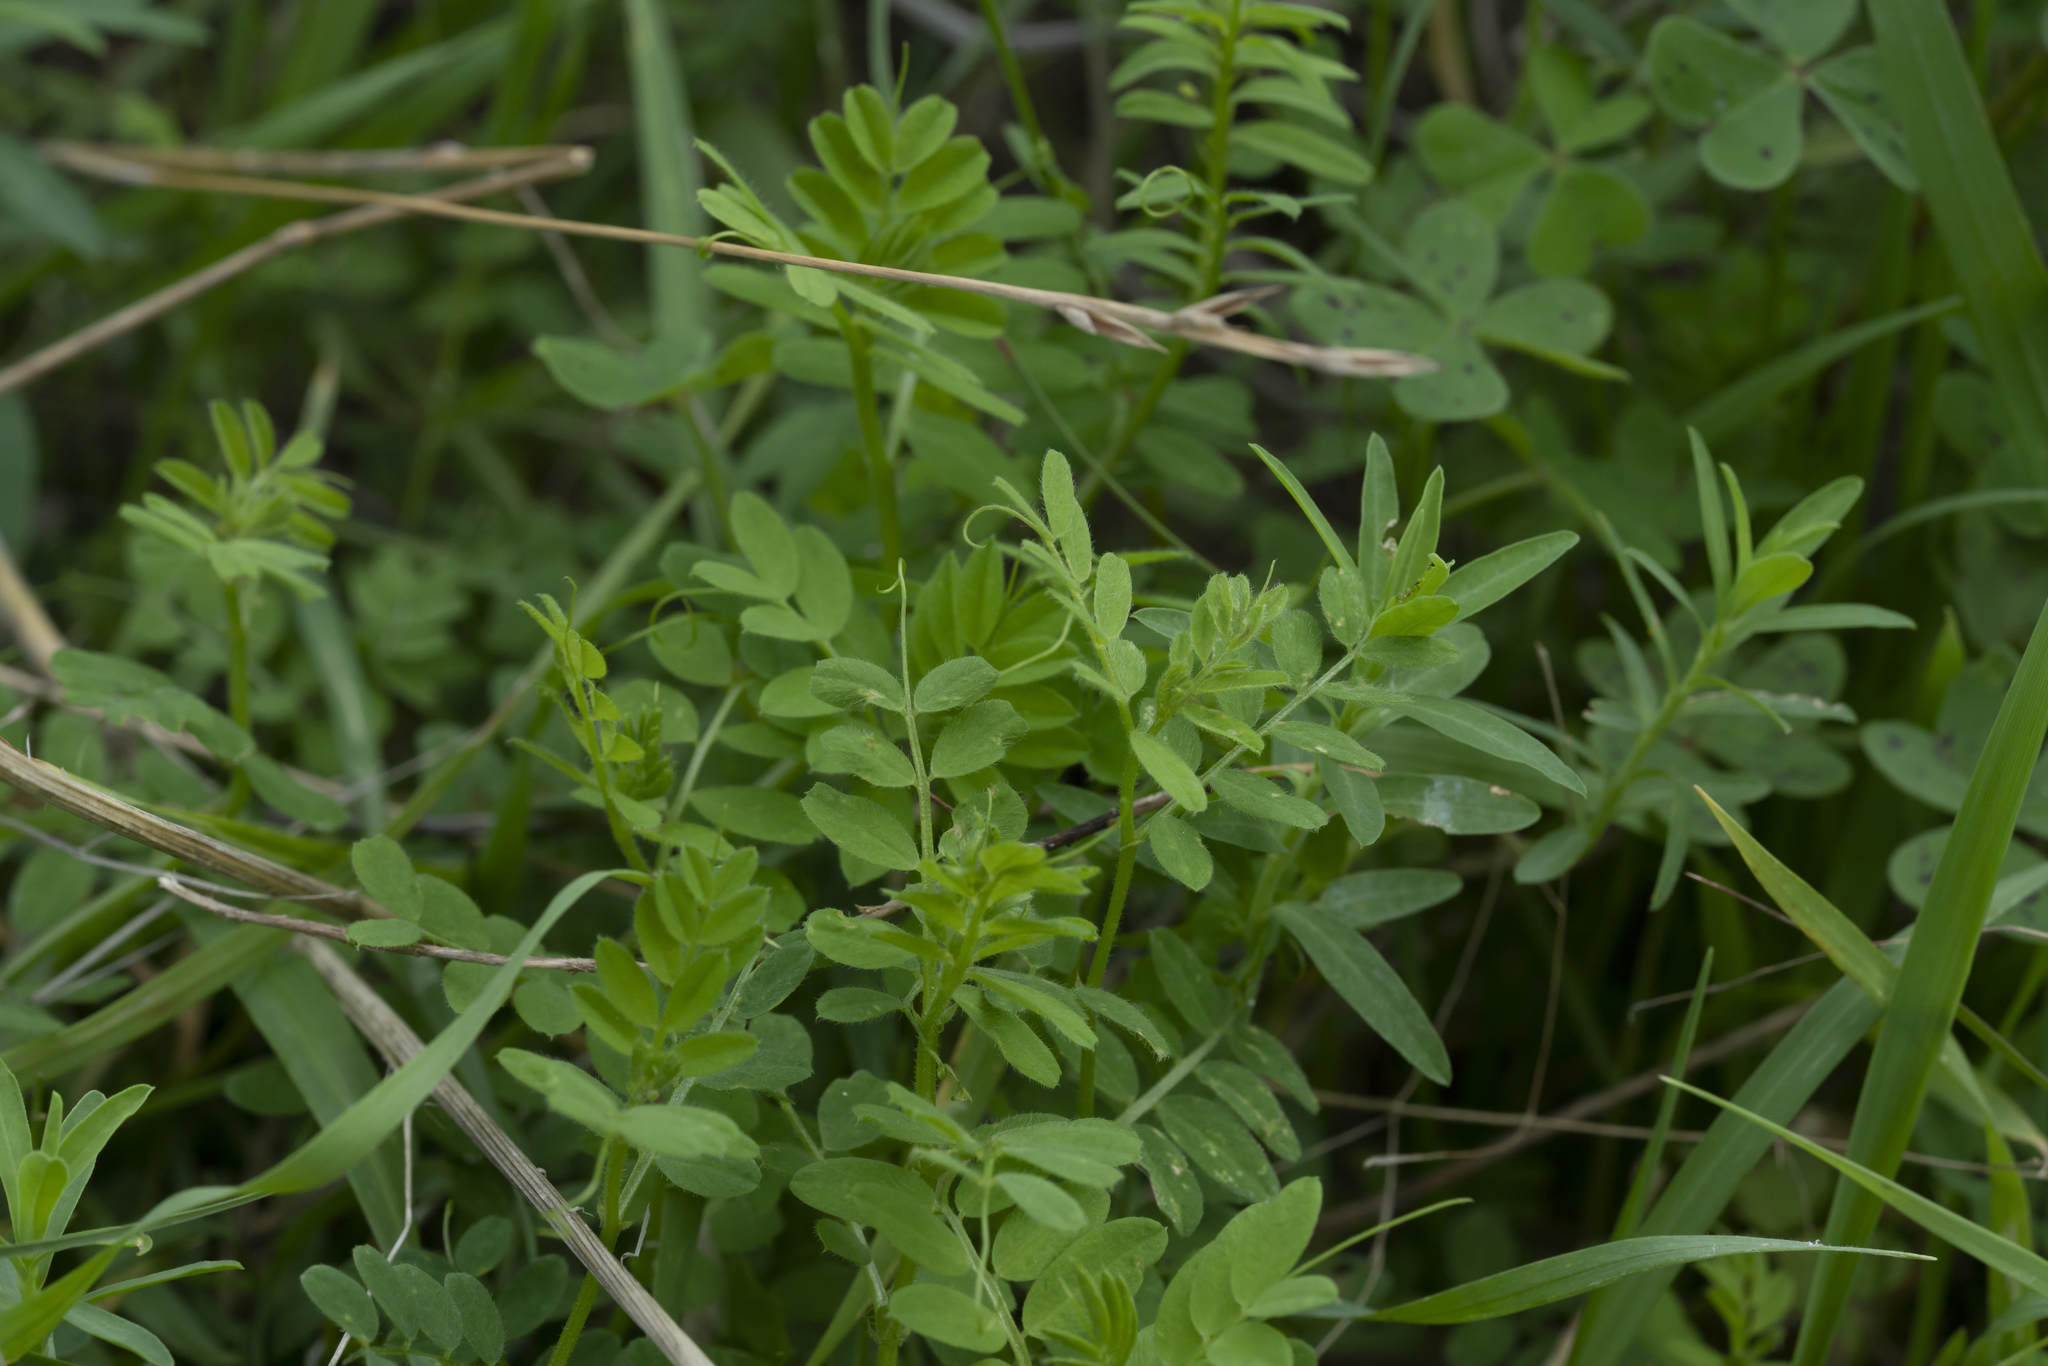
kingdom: Plantae
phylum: Tracheophyta
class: Magnoliopsida
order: Fabales
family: Fabaceae
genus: Vicia
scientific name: Vicia
